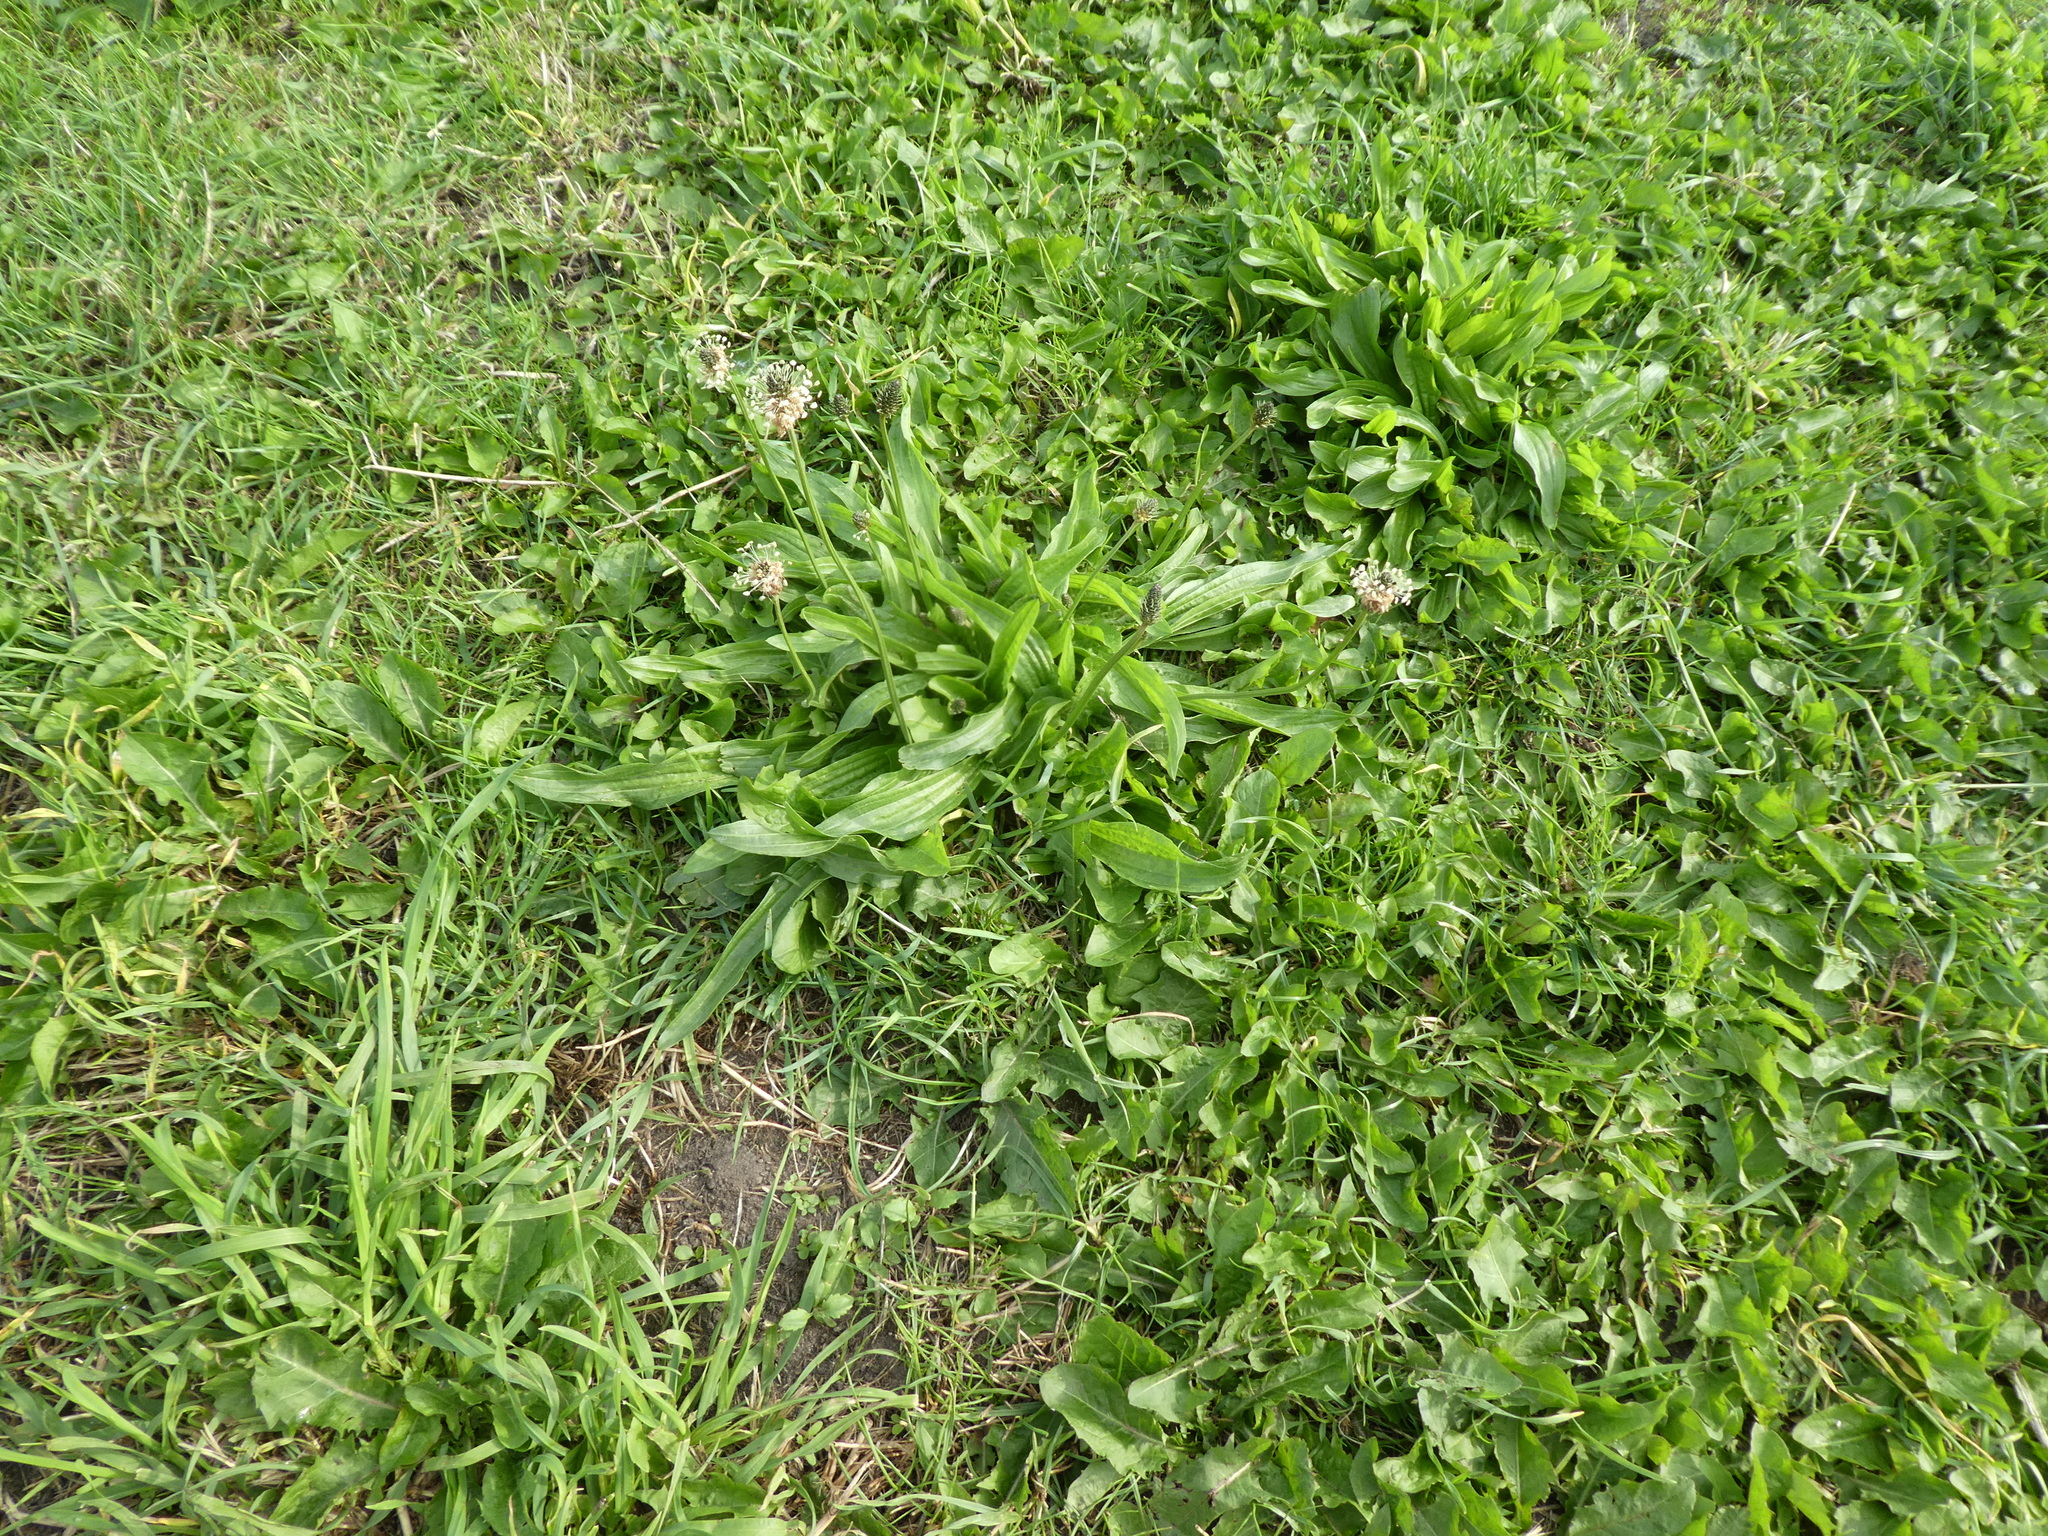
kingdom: Plantae
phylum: Tracheophyta
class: Magnoliopsida
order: Lamiales
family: Plantaginaceae
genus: Plantago
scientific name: Plantago lanceolata
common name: Ribwort plantain
